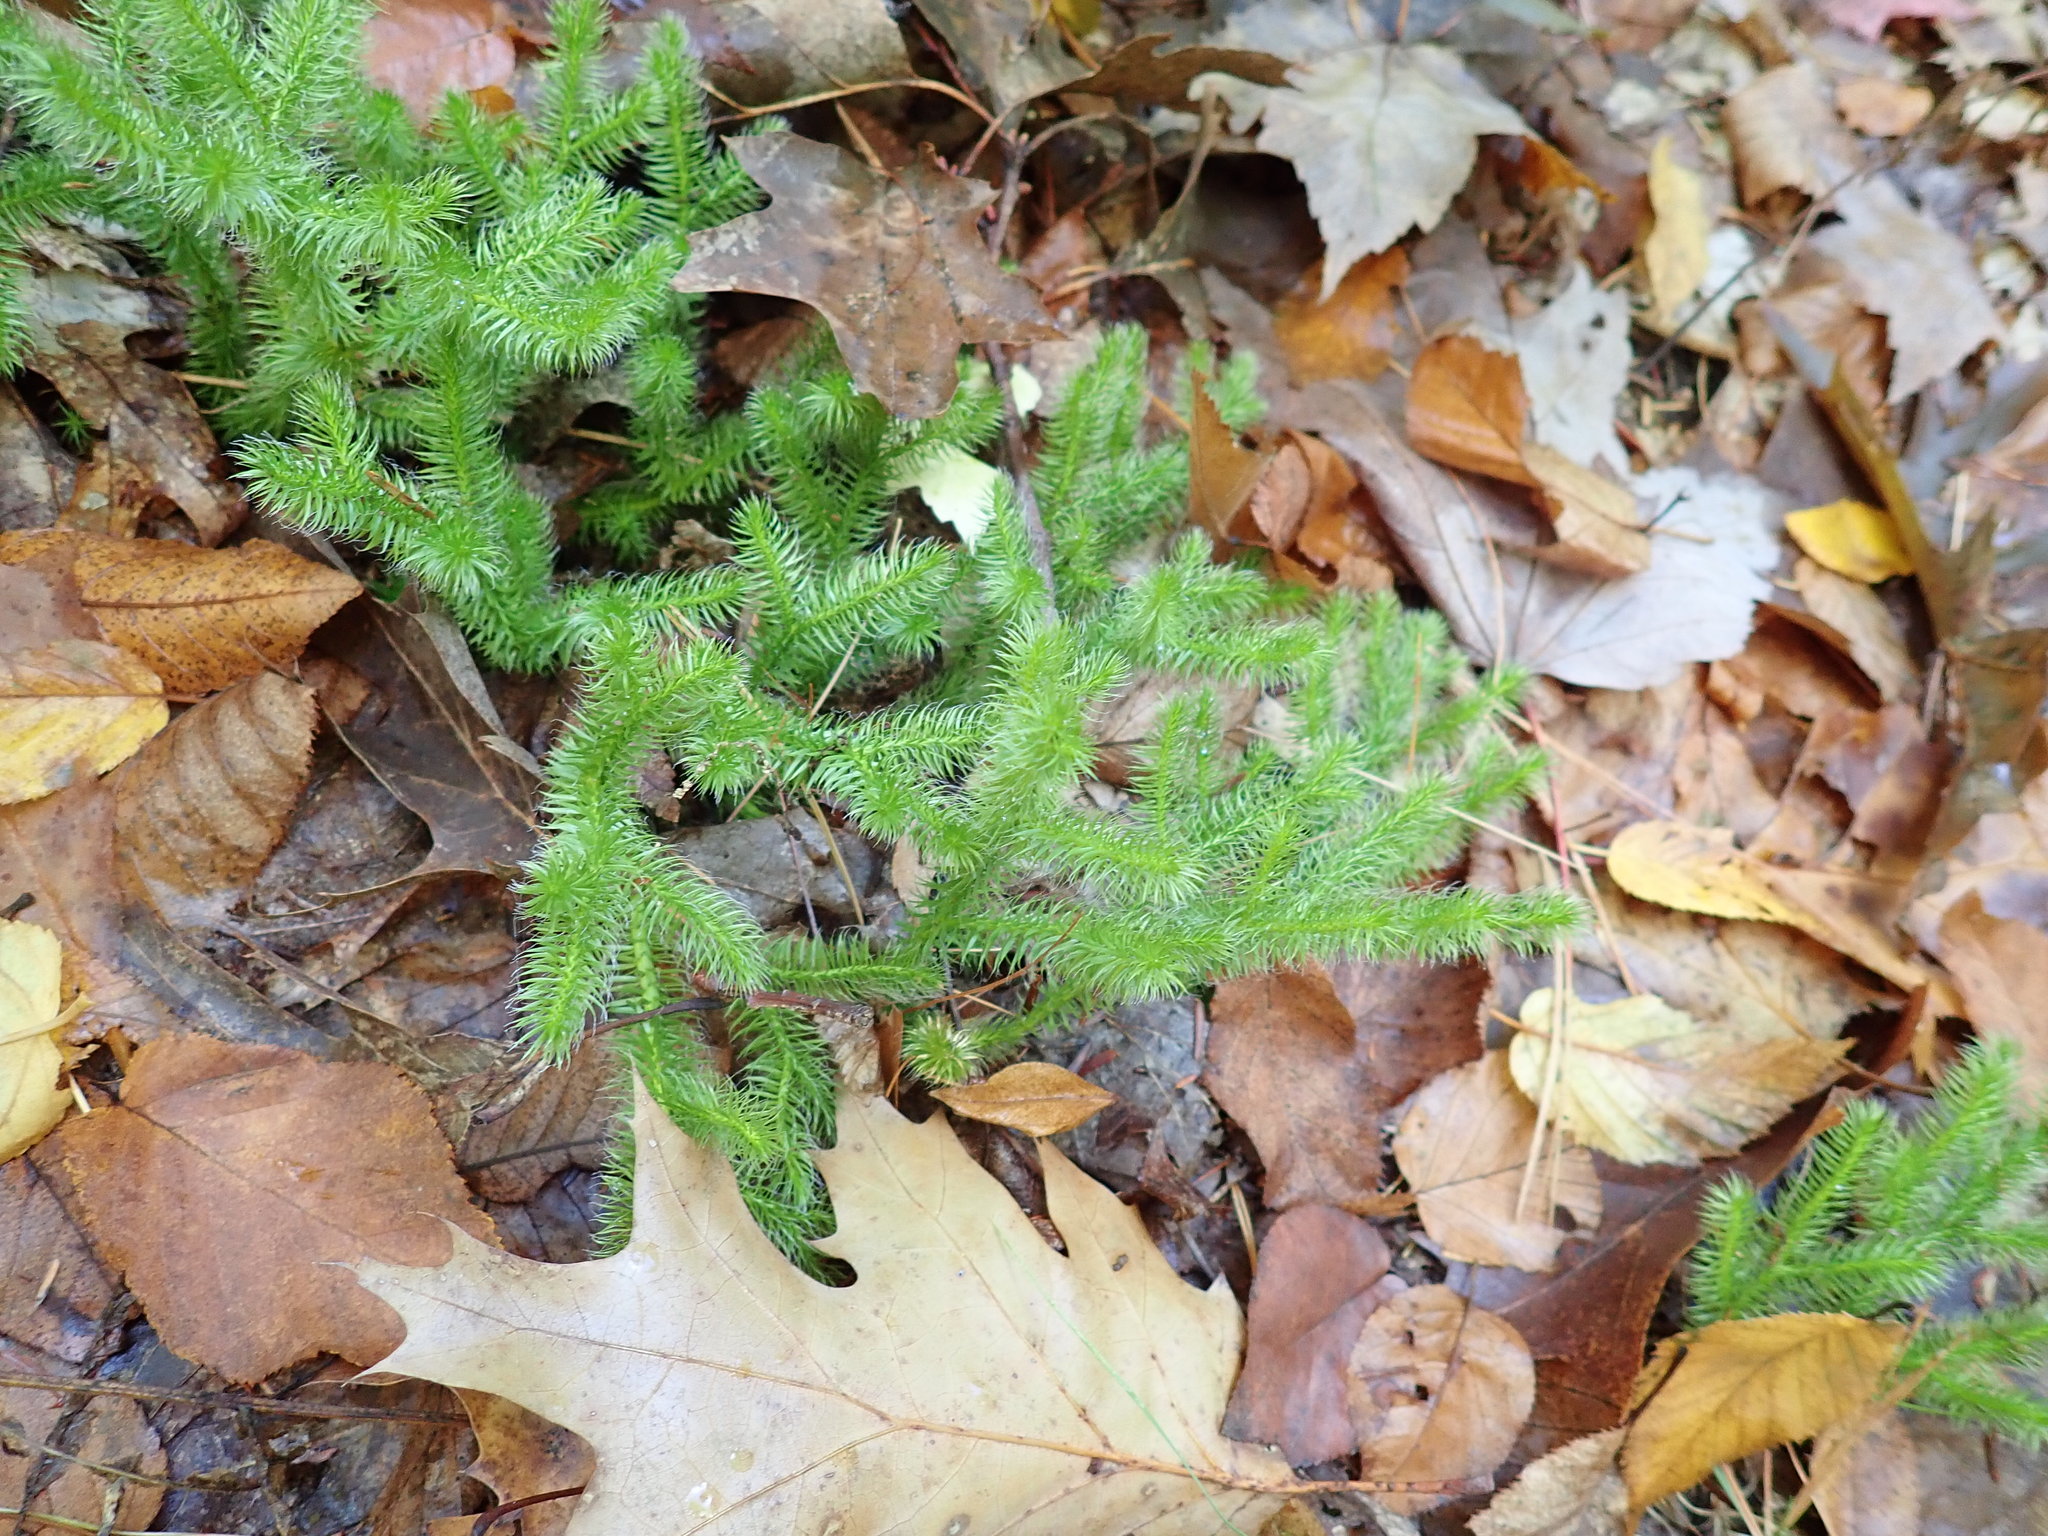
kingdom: Plantae
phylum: Tracheophyta
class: Lycopodiopsida
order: Lycopodiales
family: Lycopodiaceae
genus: Lycopodium
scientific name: Lycopodium clavatum
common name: Stag's-horn clubmoss
